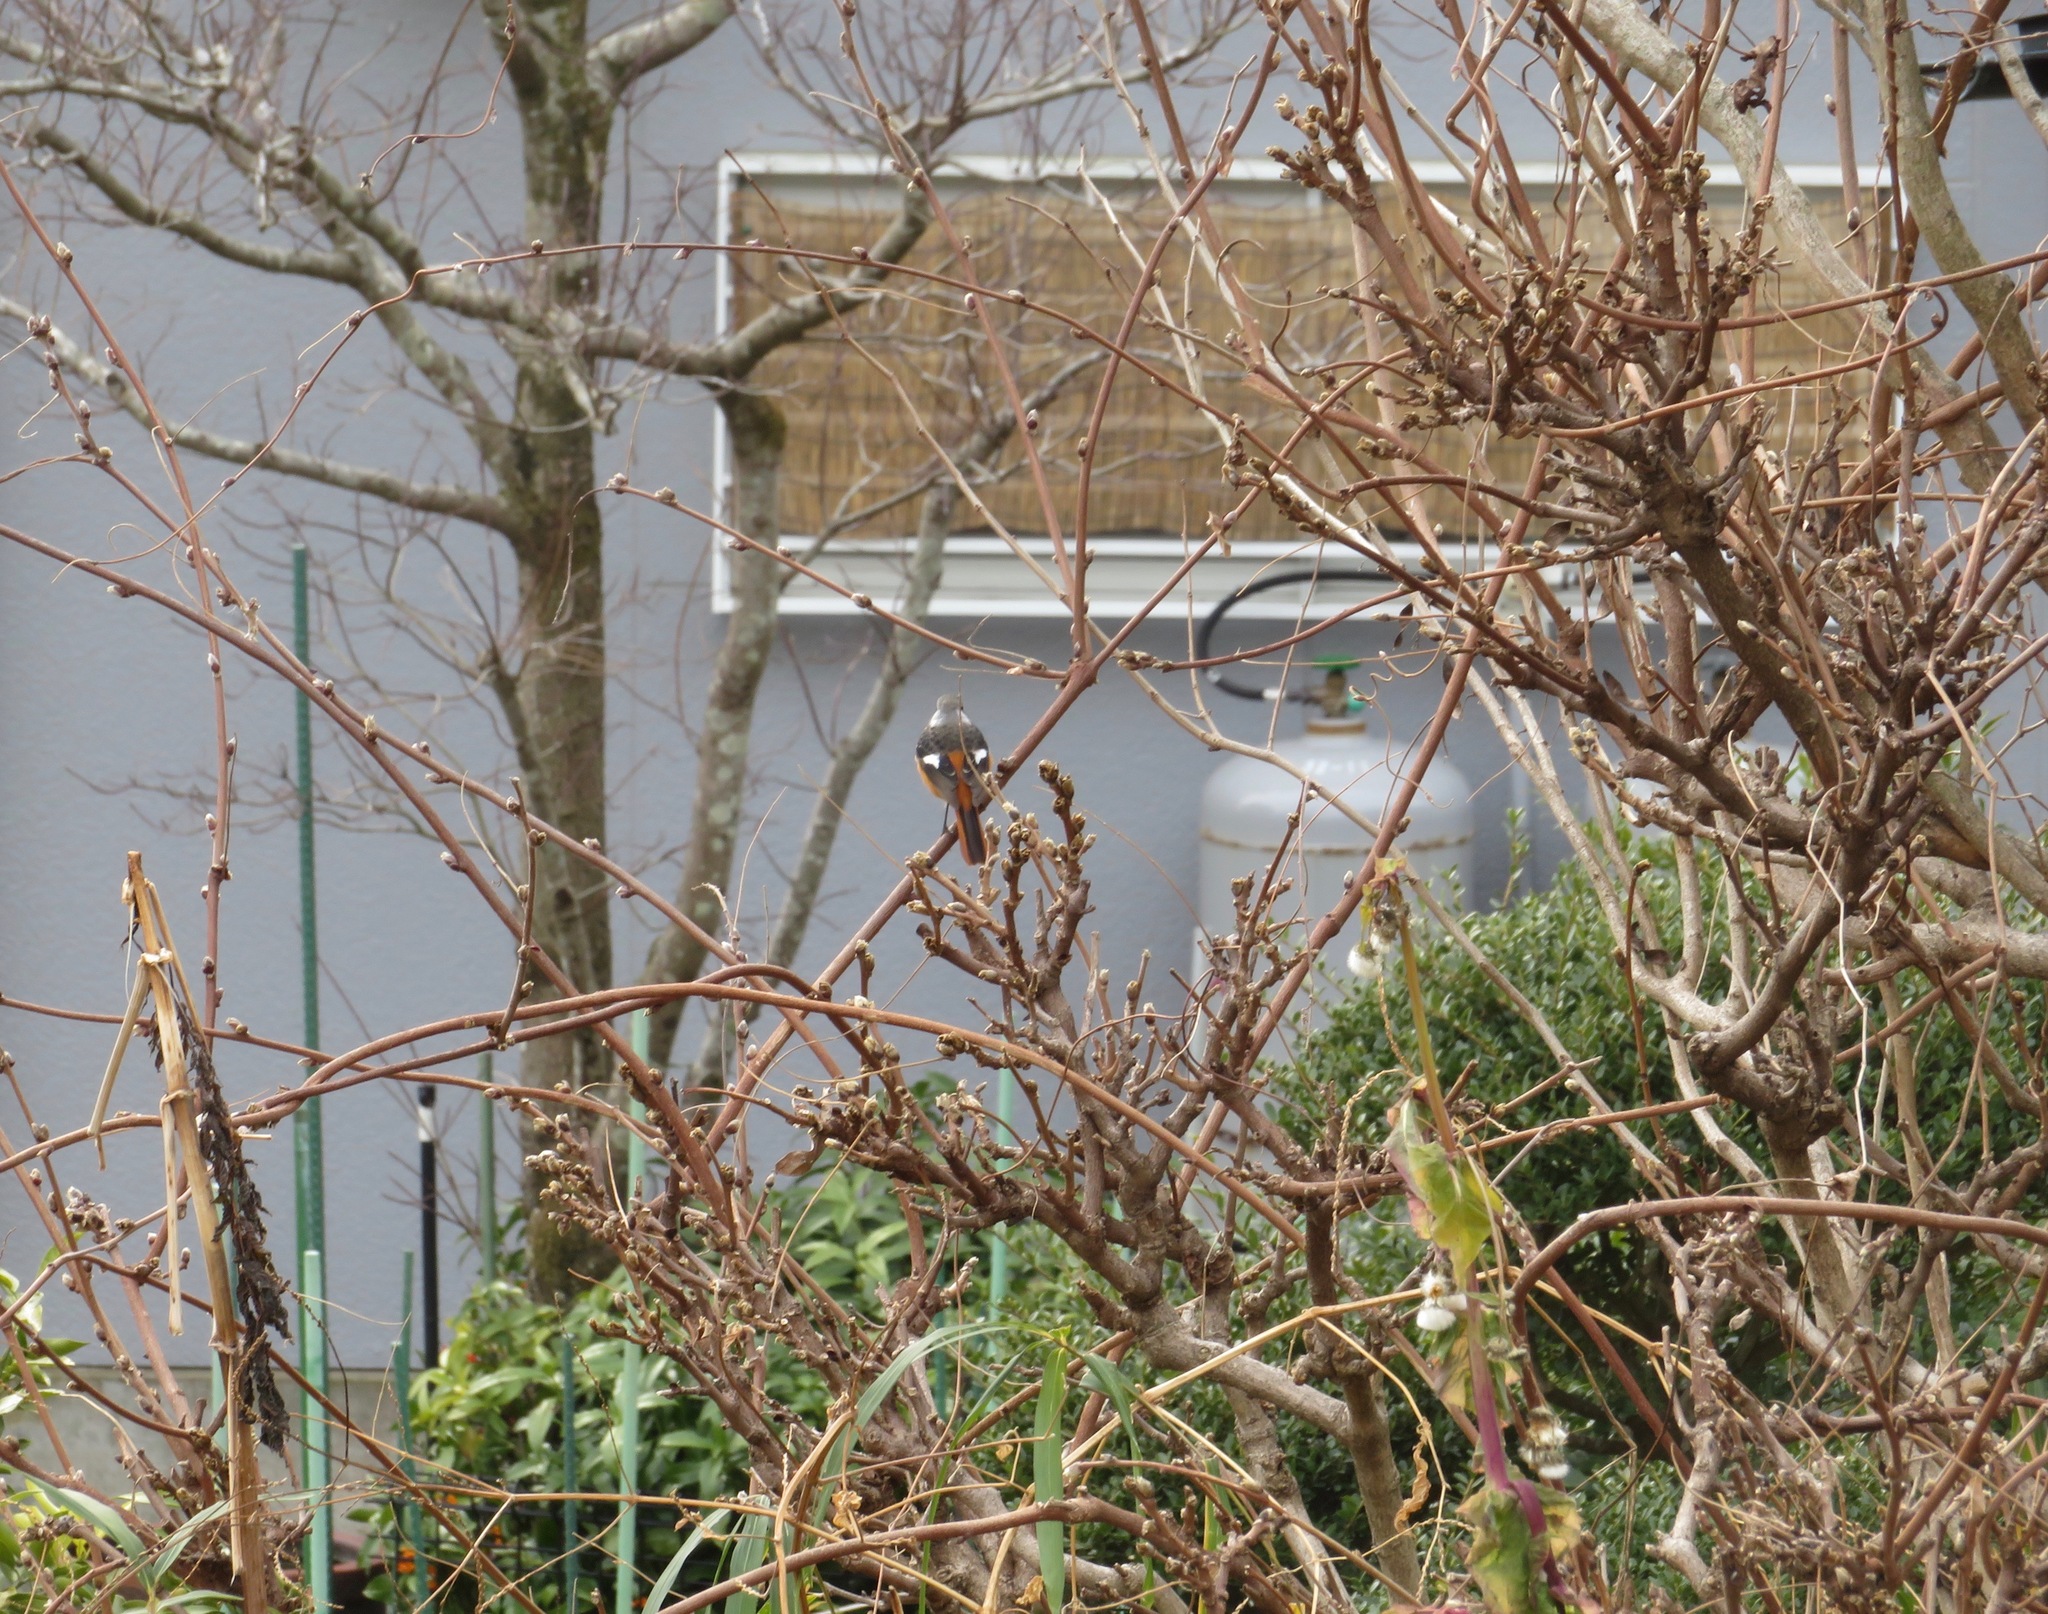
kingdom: Animalia
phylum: Chordata
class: Aves
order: Passeriformes
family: Muscicapidae
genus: Phoenicurus
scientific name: Phoenicurus auroreus
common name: Daurian redstart
